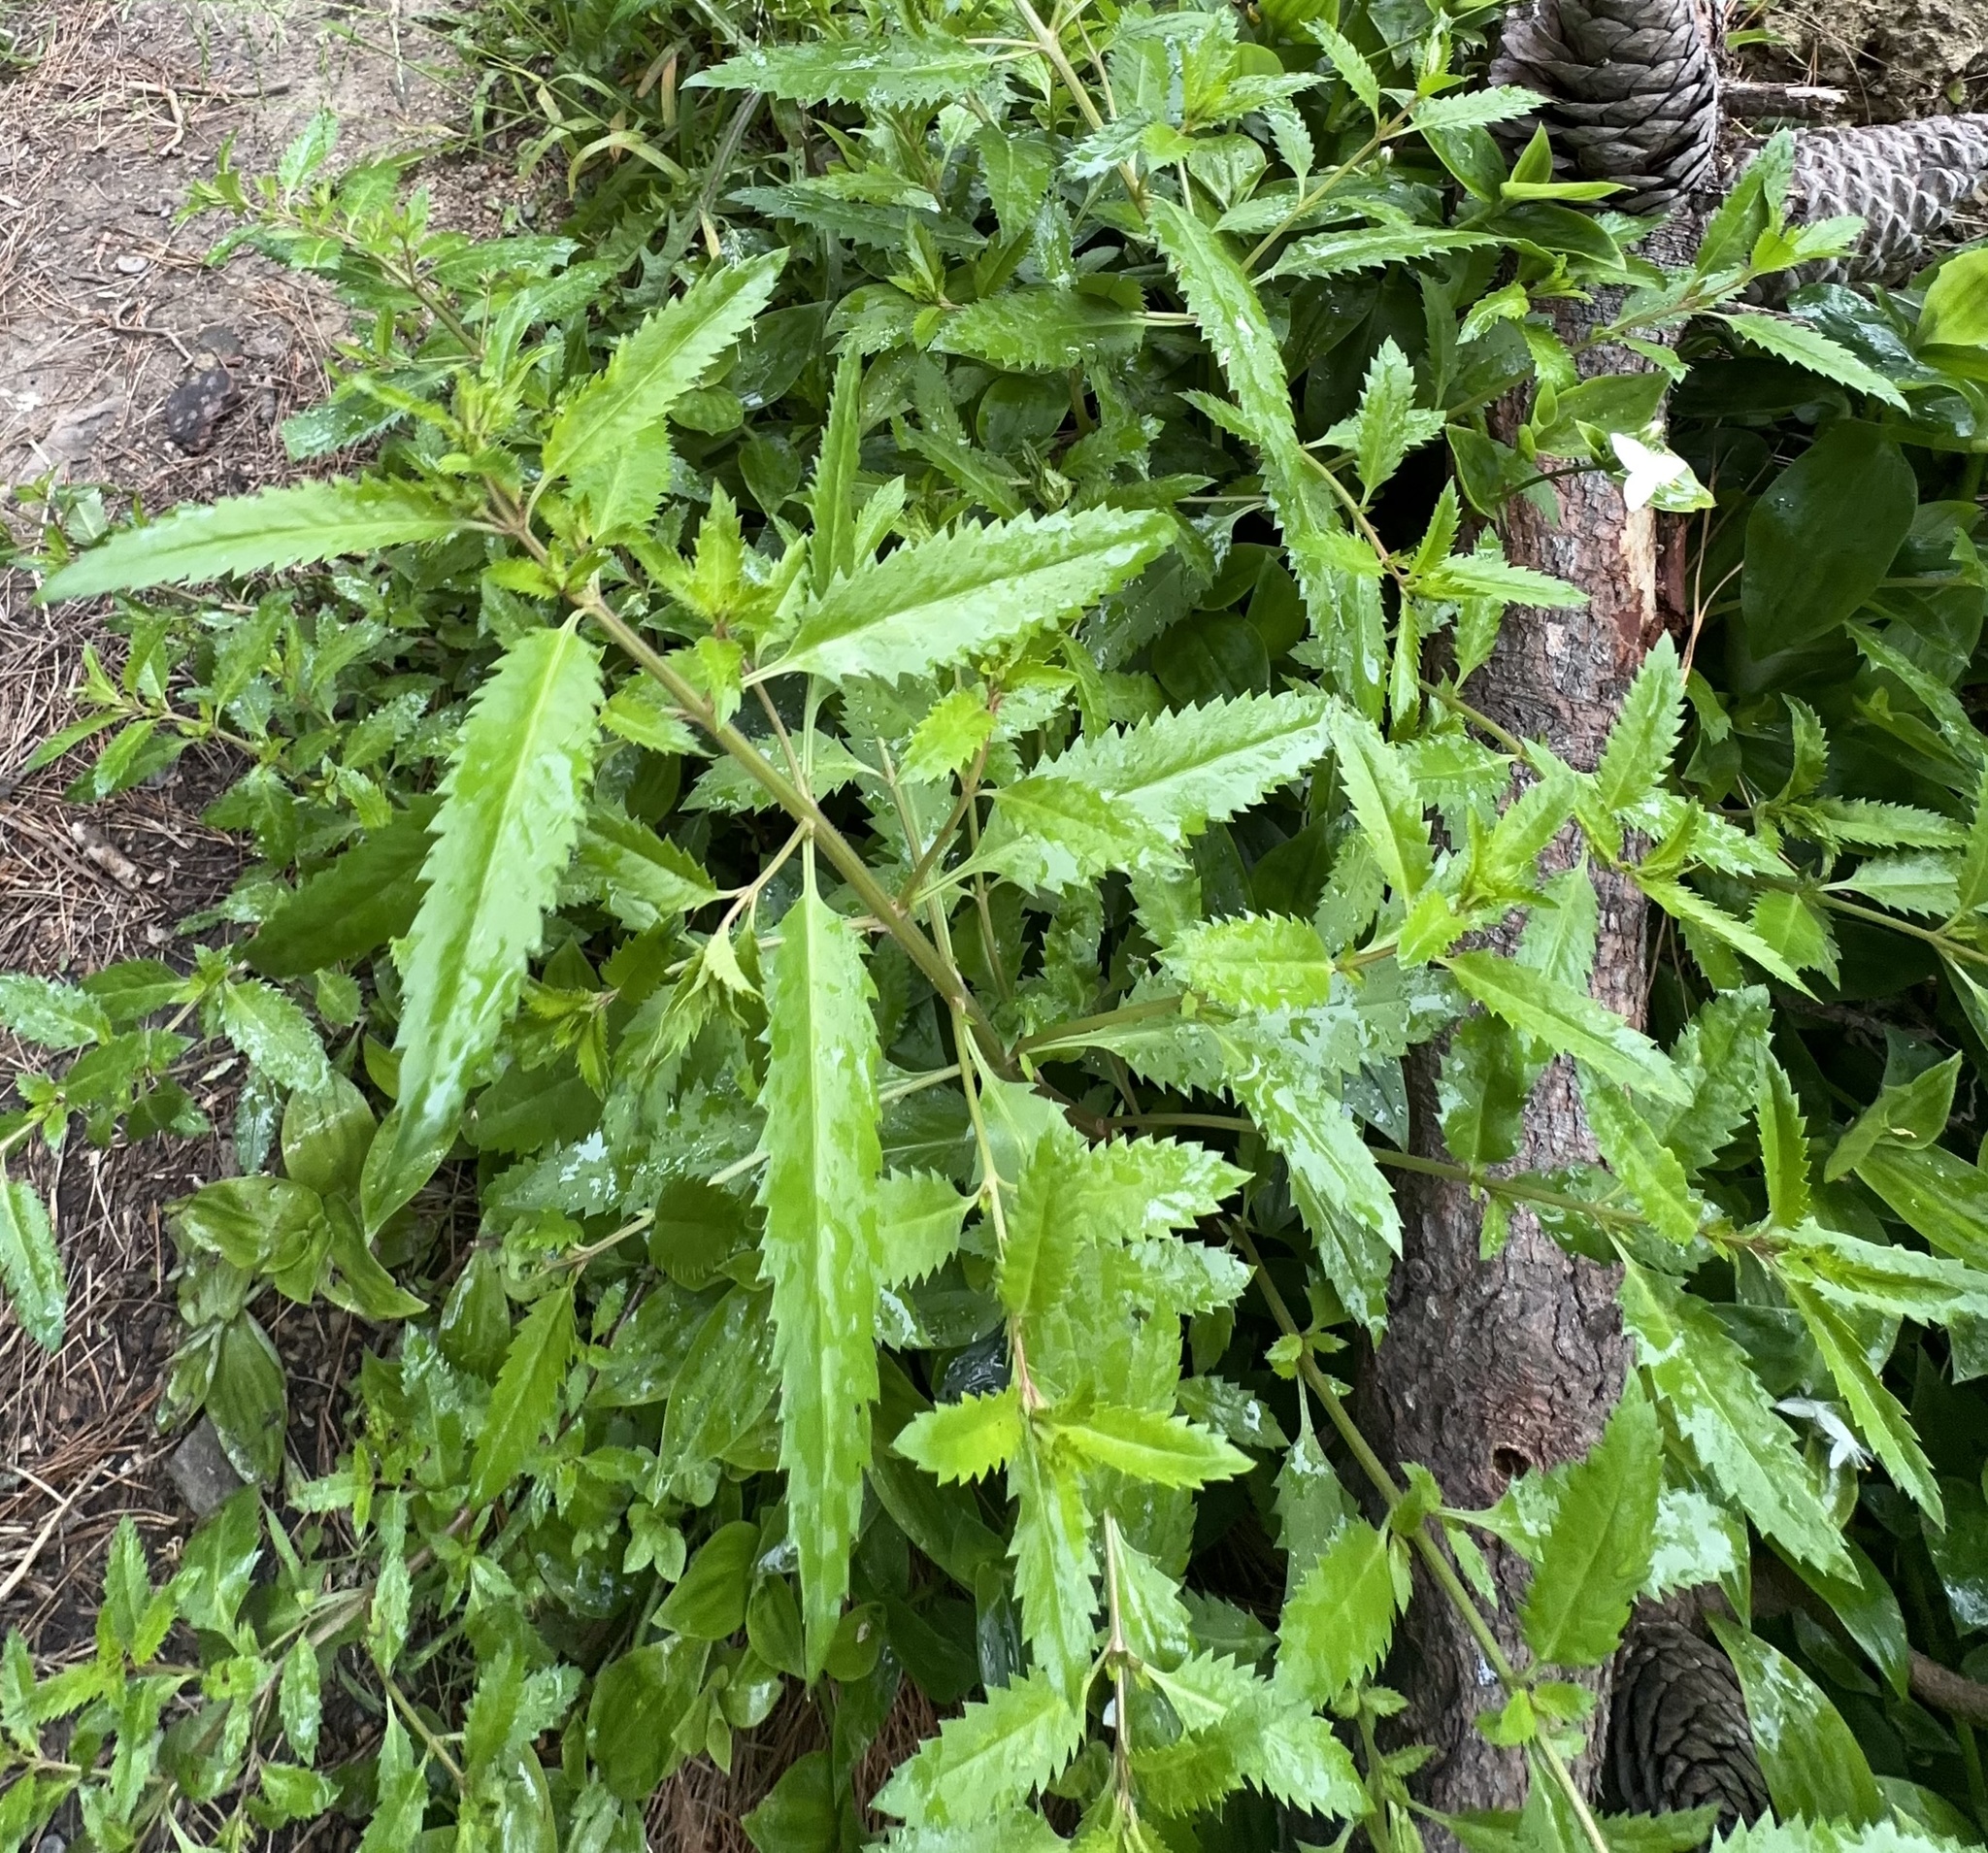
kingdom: Plantae
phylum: Tracheophyta
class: Magnoliopsida
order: Saxifragales
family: Haloragaceae
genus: Haloragis
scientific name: Haloragis erecta
